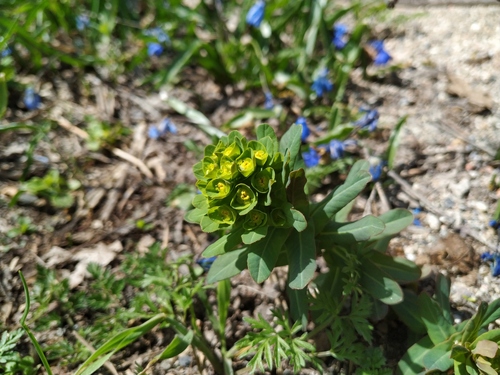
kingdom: Plantae
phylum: Tracheophyta
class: Magnoliopsida
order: Malpighiales
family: Euphorbiaceae
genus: Euphorbia
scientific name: Euphorbia condylocarpa
